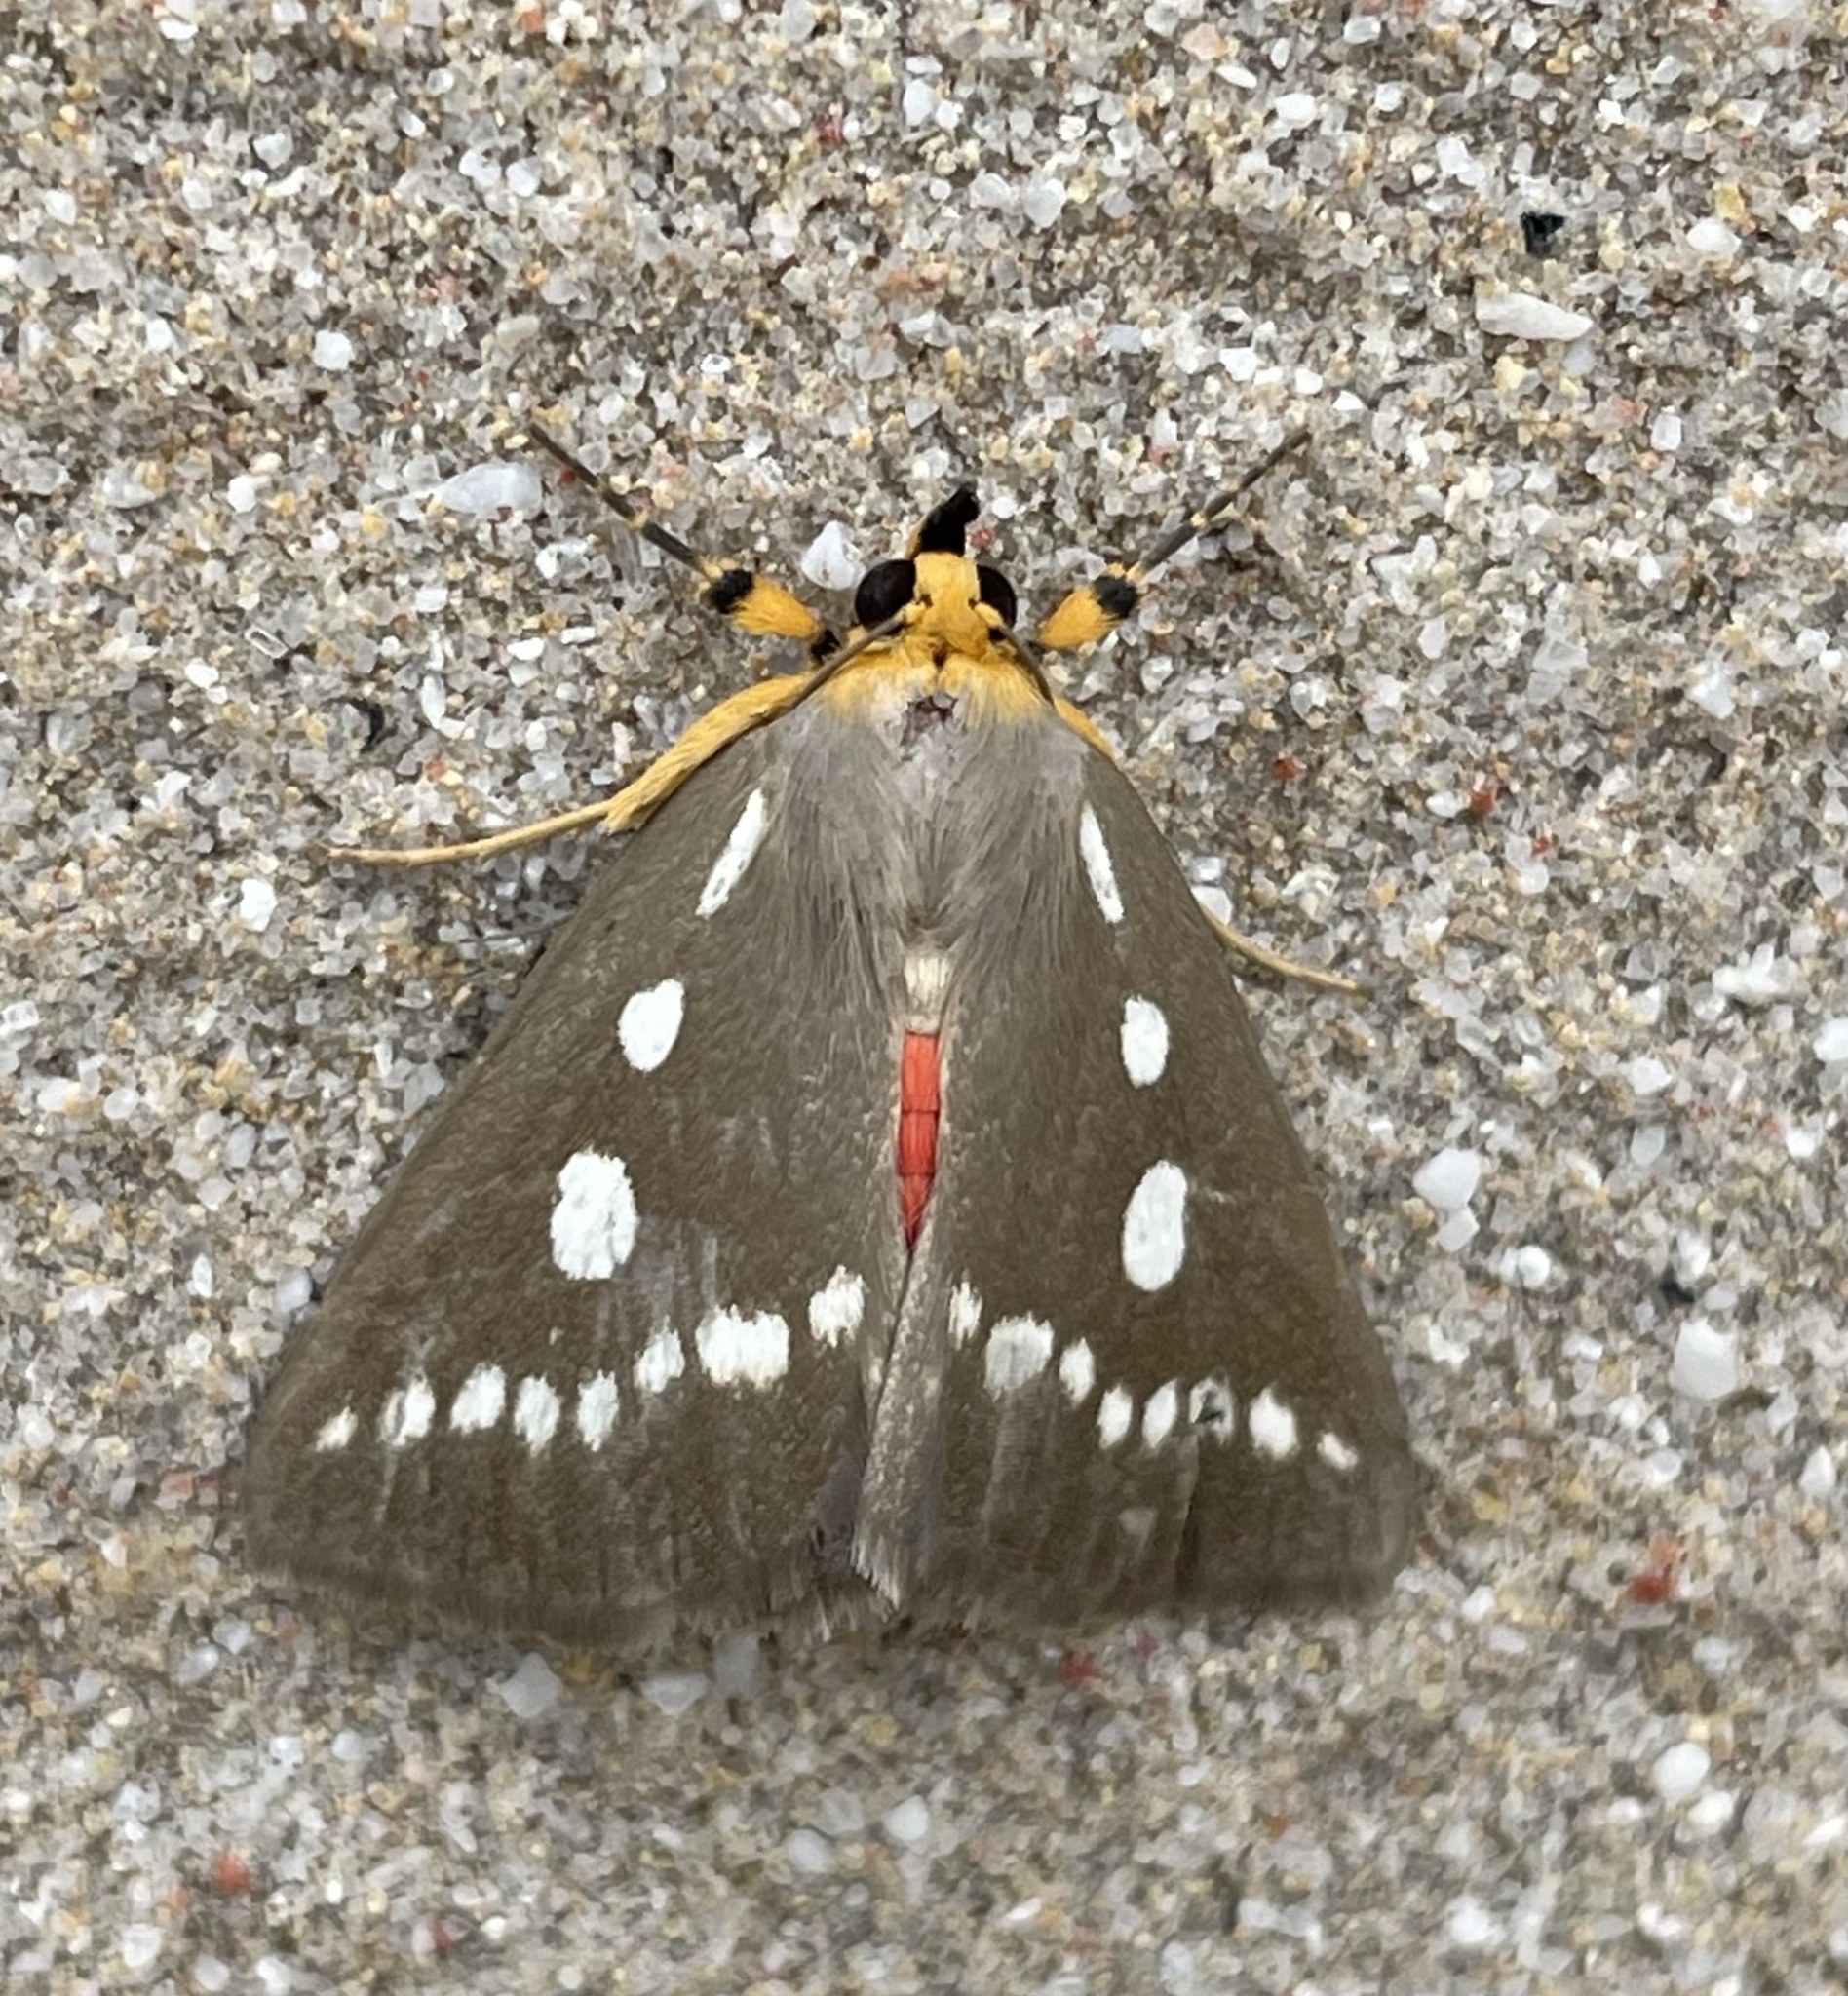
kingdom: Animalia
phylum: Arthropoda
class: Insecta
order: Lepidoptera
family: Erebidae
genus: Calesia
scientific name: Calesia zambesita
